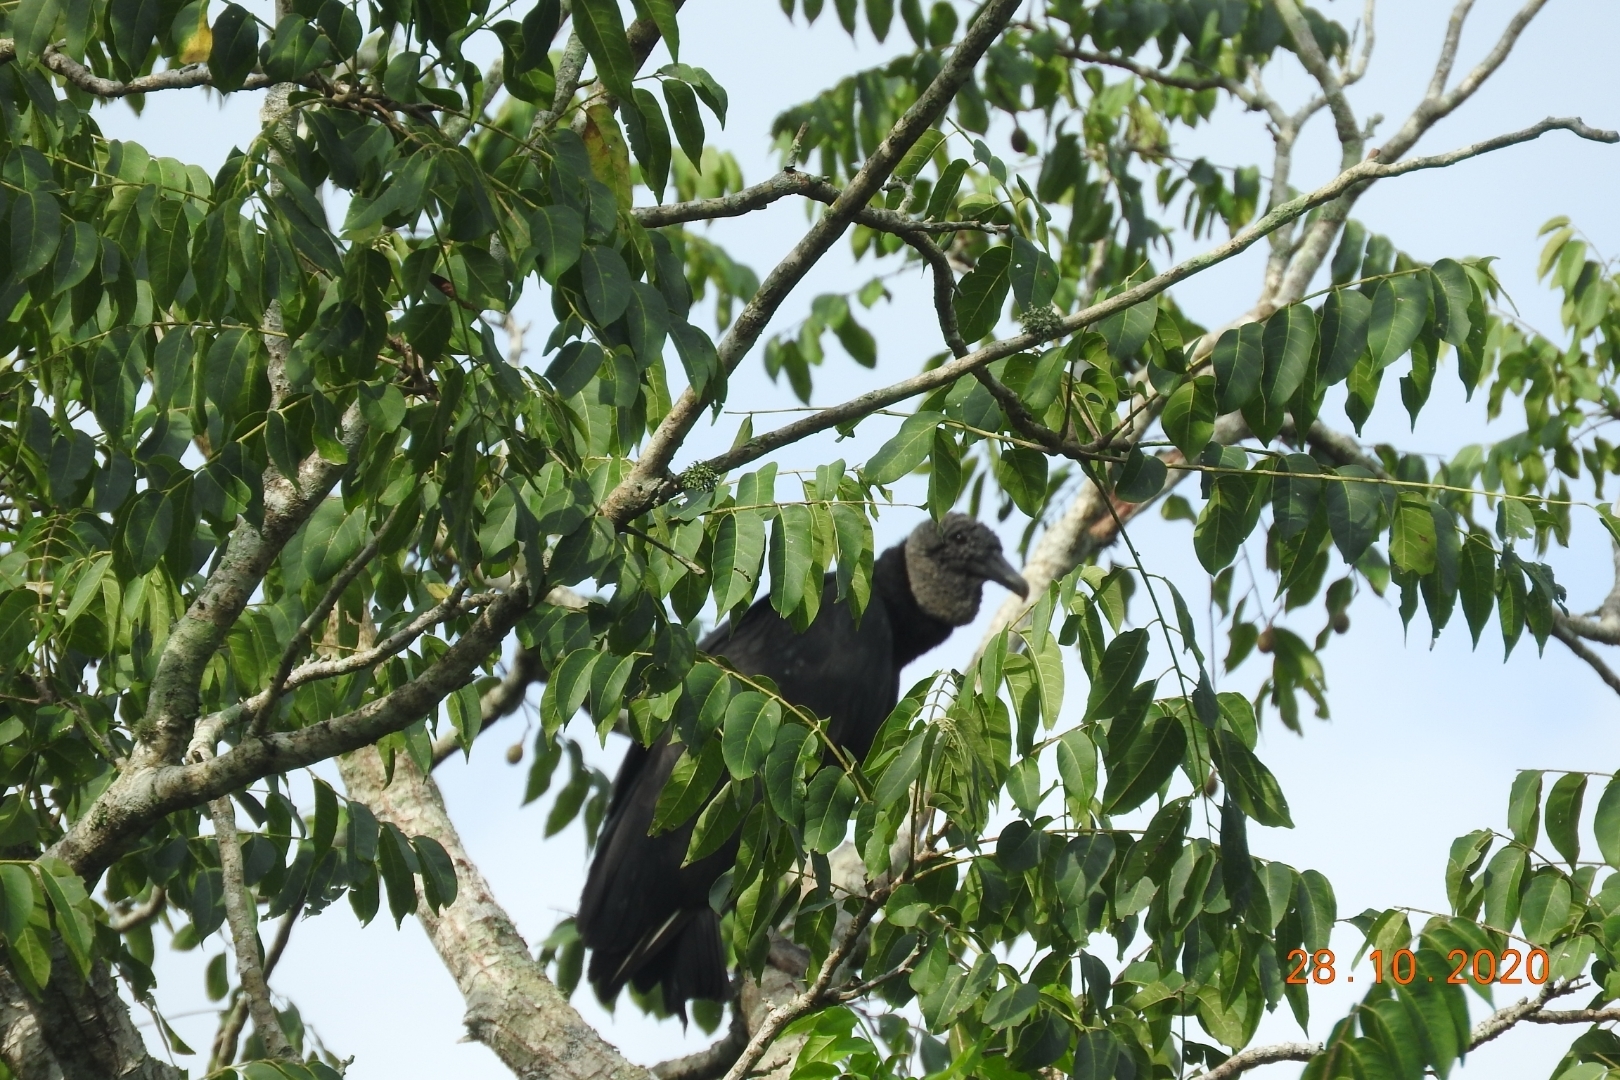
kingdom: Animalia
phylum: Chordata
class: Aves
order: Accipitriformes
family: Cathartidae
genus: Coragyps
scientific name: Coragyps atratus
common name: Black vulture
